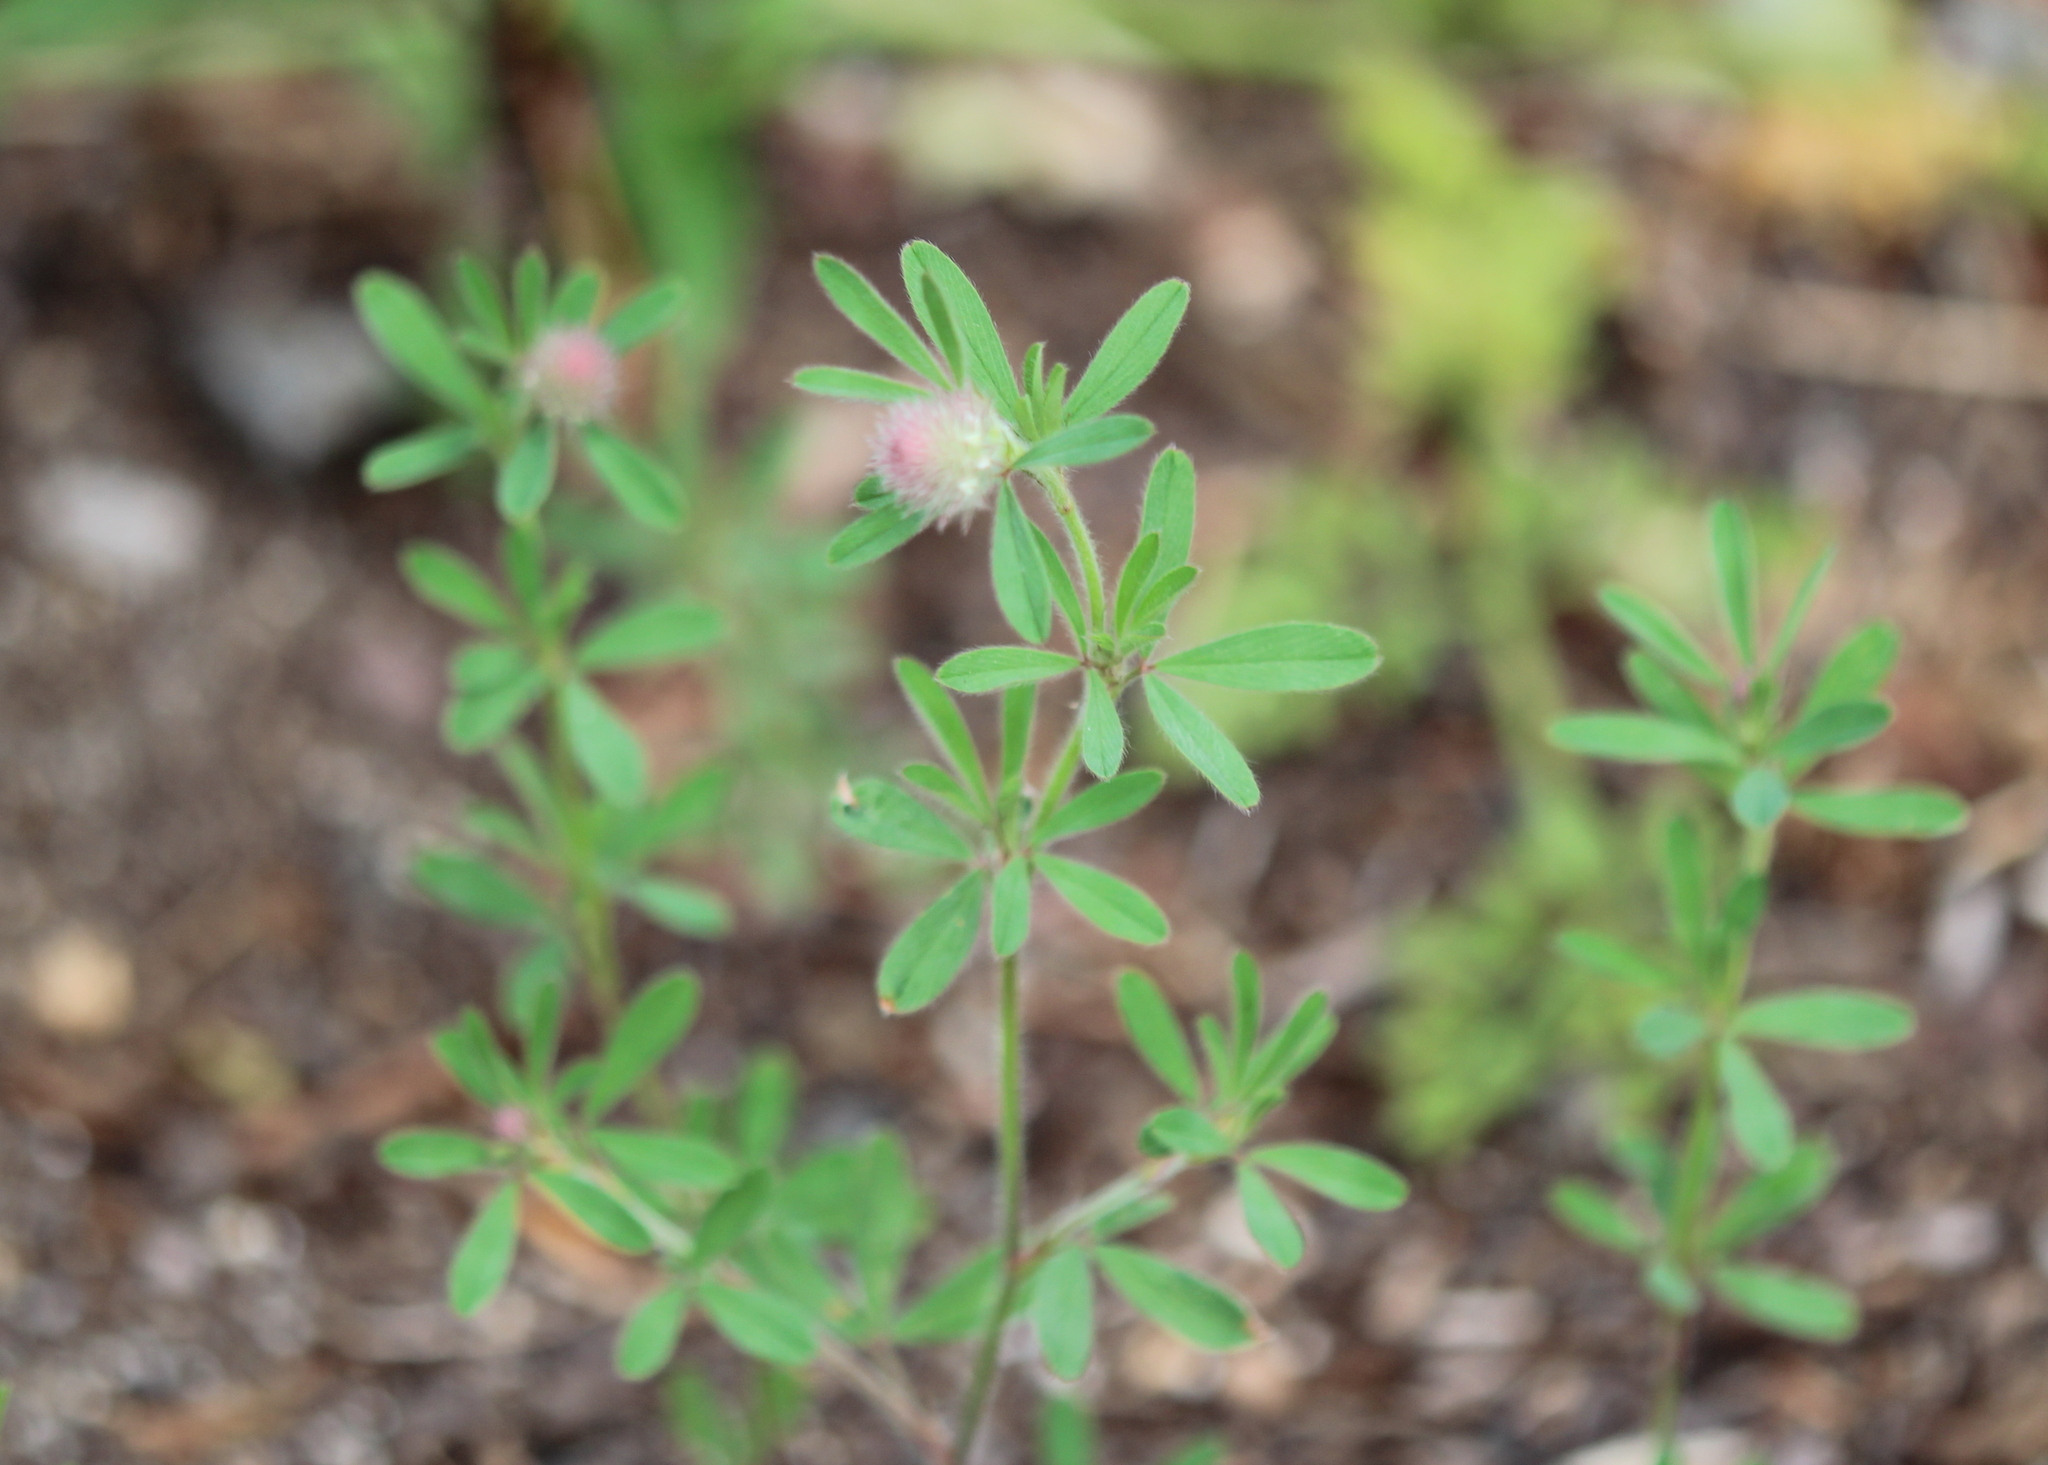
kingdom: Plantae
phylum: Tracheophyta
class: Magnoliopsida
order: Fabales
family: Fabaceae
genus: Trifolium
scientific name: Trifolium arvense
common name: Hare's-foot clover
